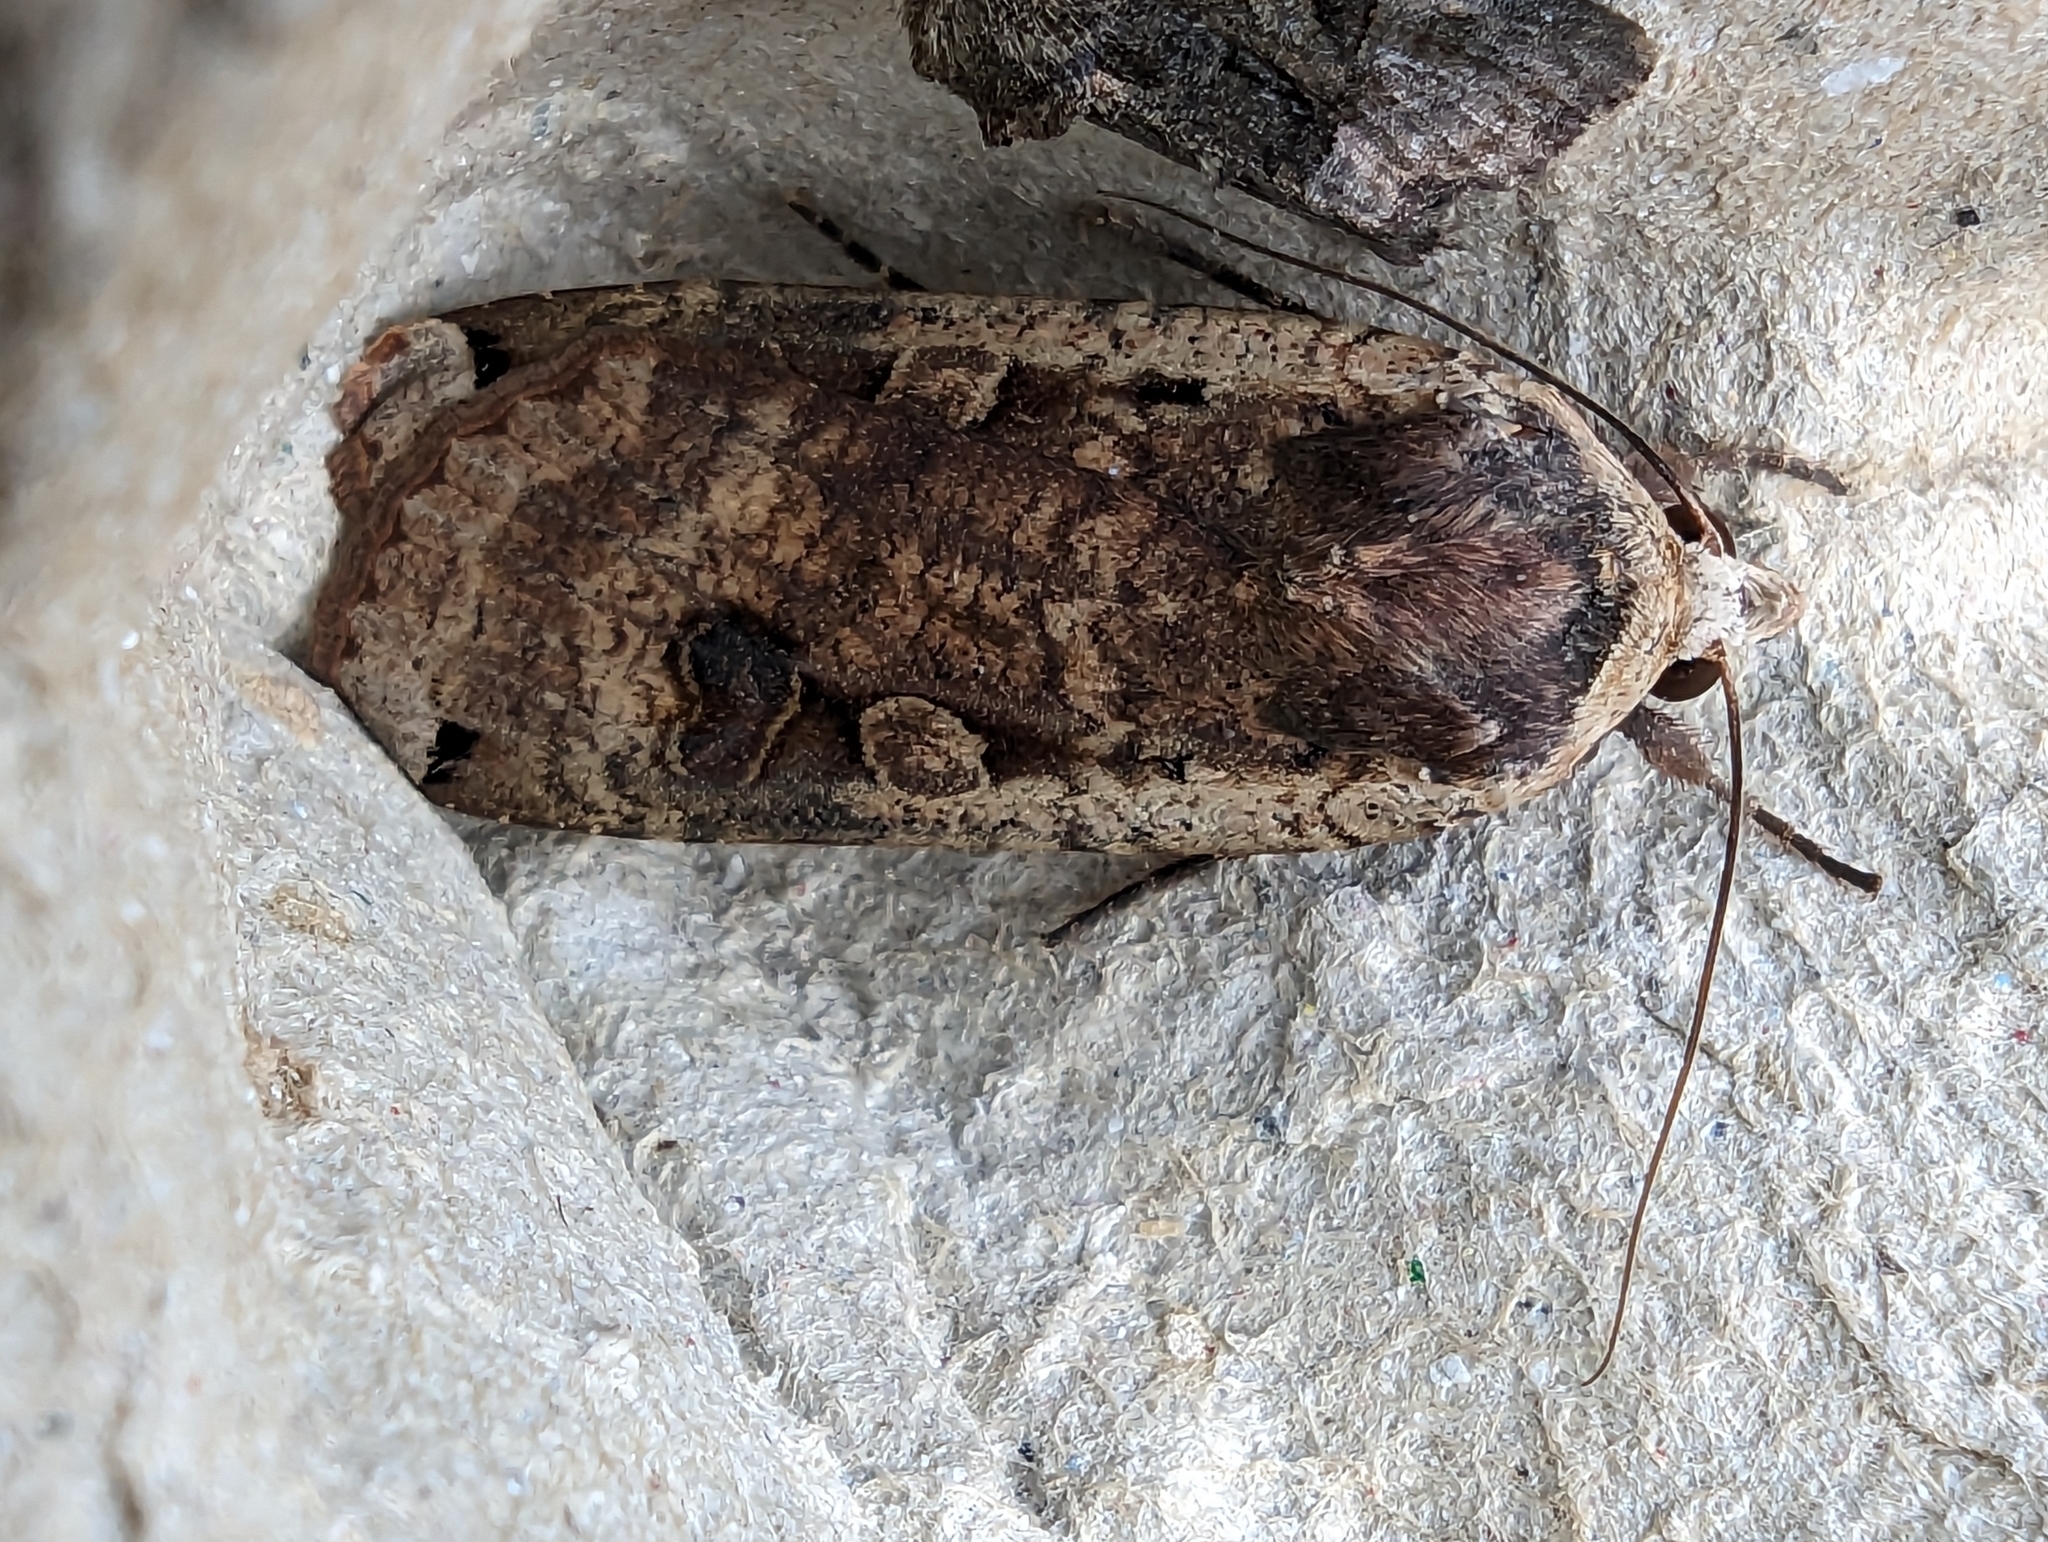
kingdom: Animalia
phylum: Arthropoda
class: Insecta
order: Lepidoptera
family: Noctuidae
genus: Noctua
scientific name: Noctua pronuba
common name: Large yellow underwing
